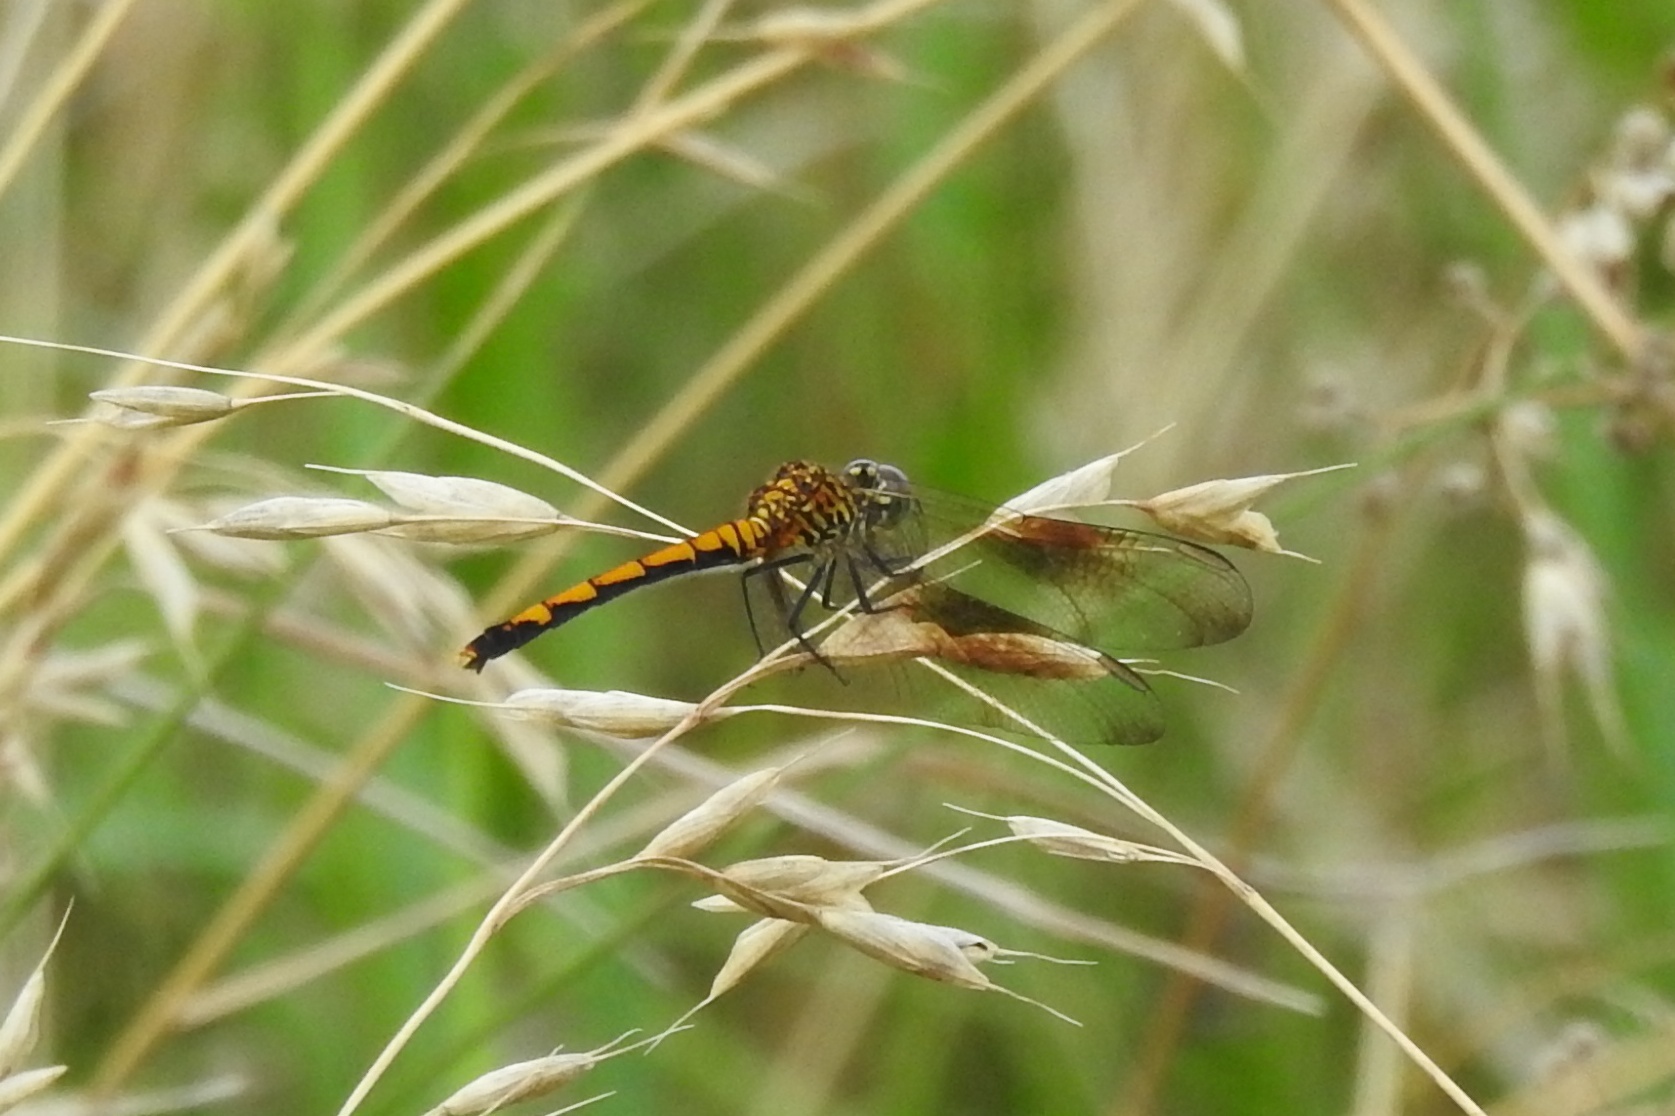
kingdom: Animalia
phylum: Arthropoda
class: Insecta
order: Odonata
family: Libellulidae
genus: Erythrodiplax
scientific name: Erythrodiplax berenice
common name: Seaside dragonlet
